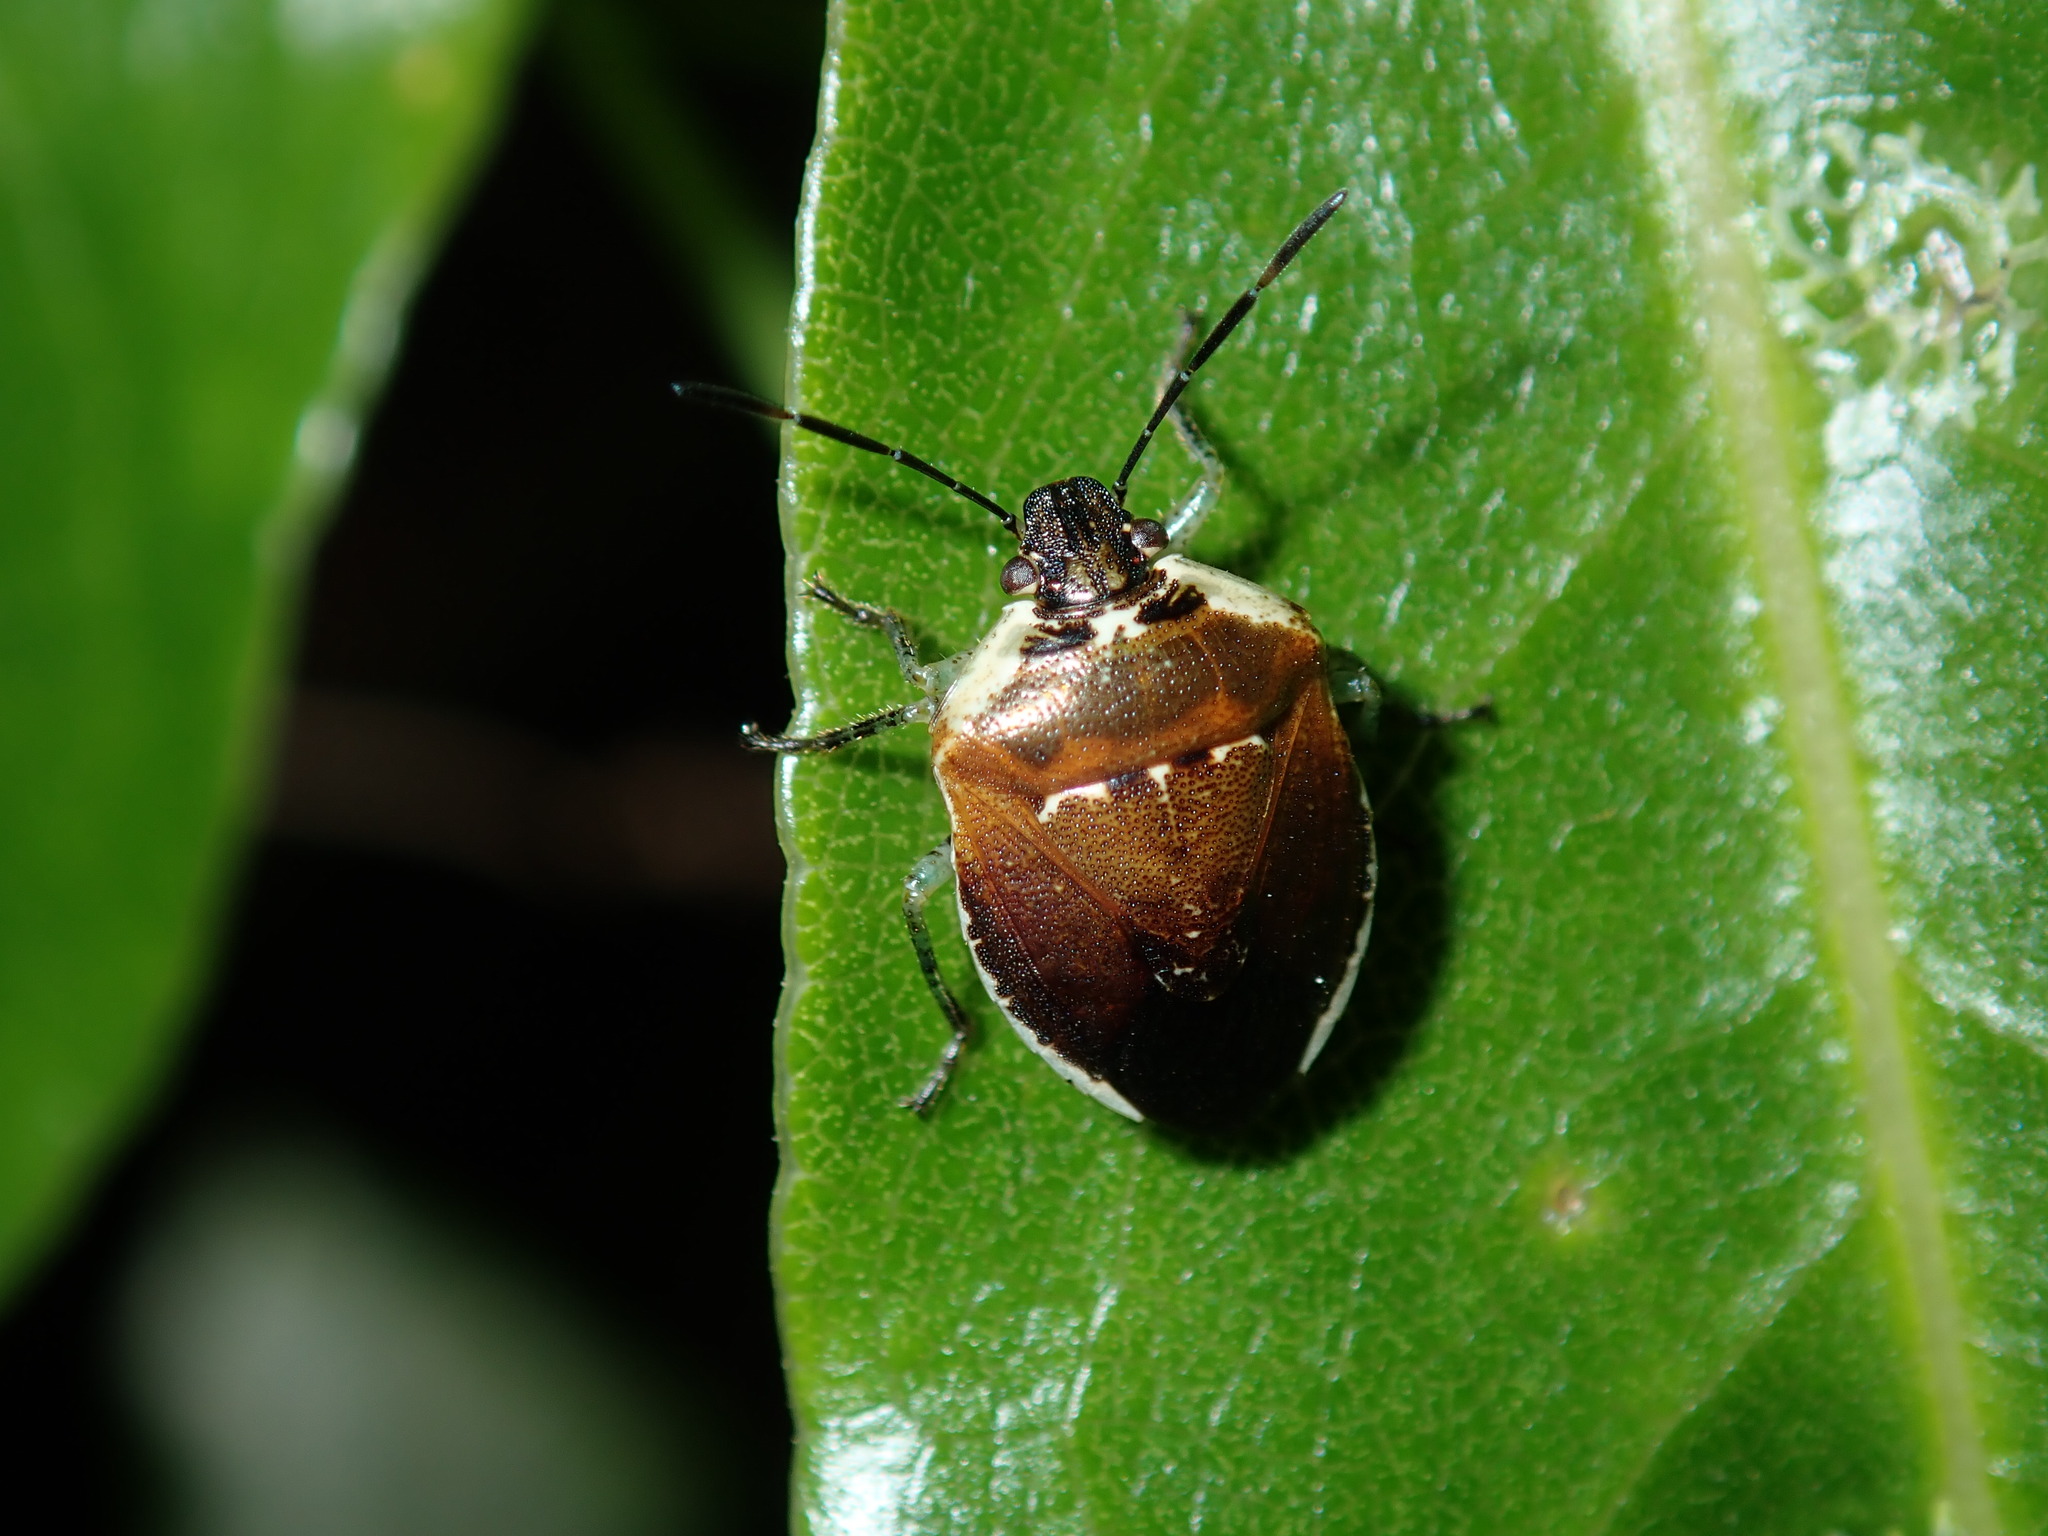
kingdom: Animalia
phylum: Arthropoda
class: Insecta
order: Hemiptera
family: Pentatomidae
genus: Monteithiella
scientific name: Monteithiella
